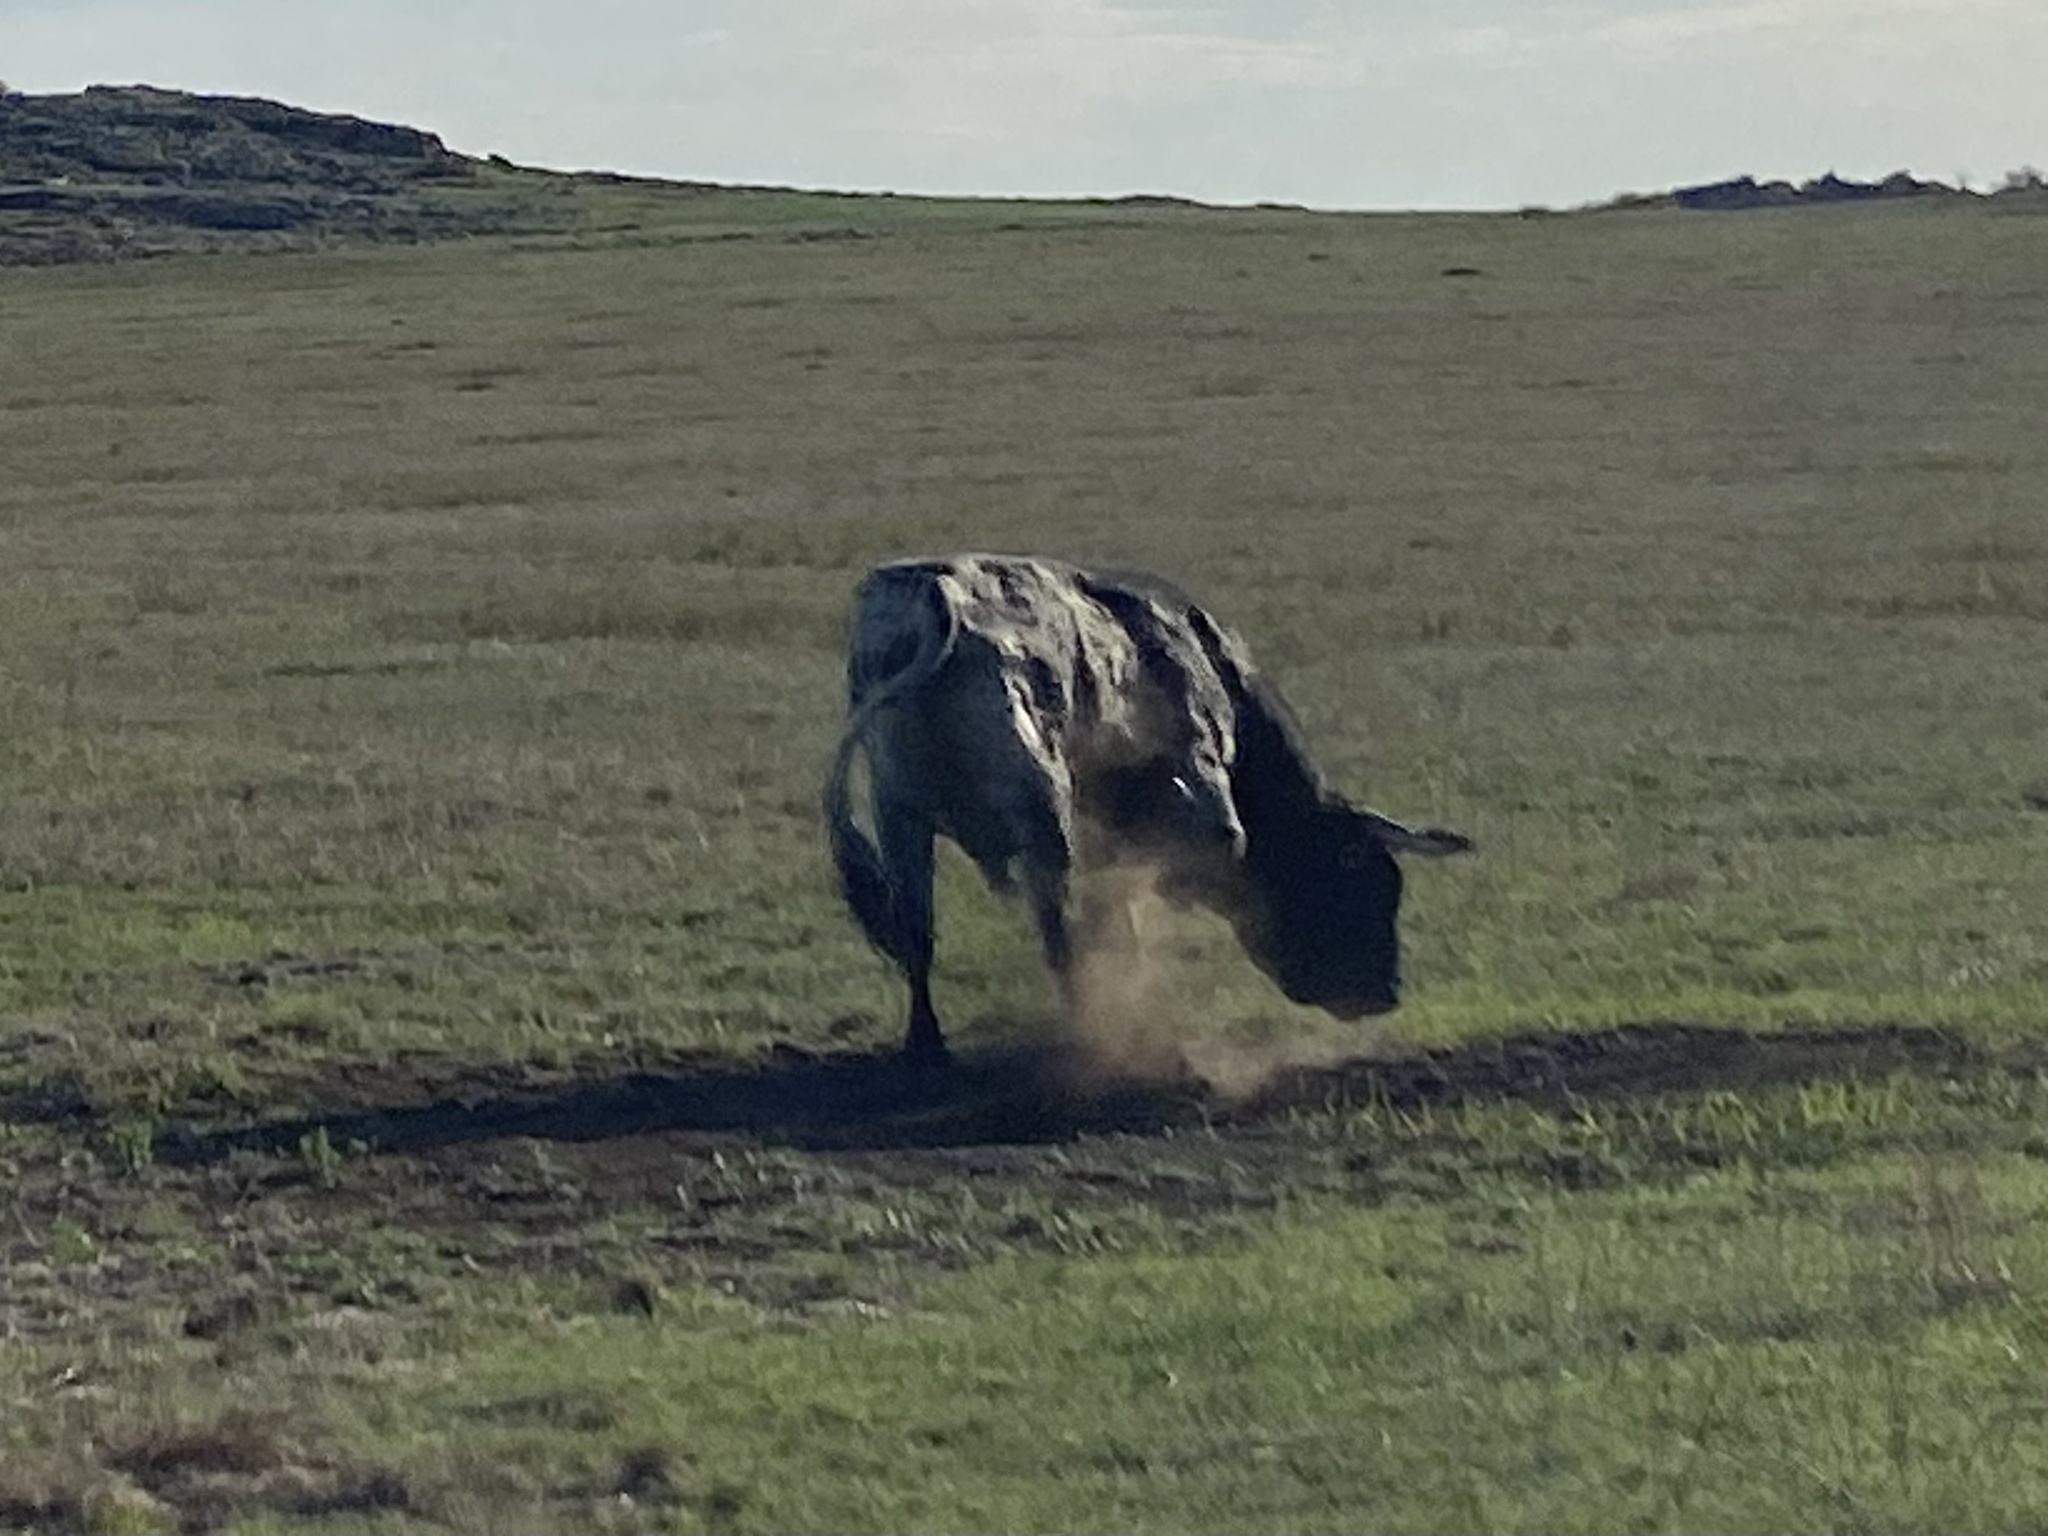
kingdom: Animalia
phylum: Chordata
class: Mammalia
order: Artiodactyla
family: Bovidae
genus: Bos
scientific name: Bos taurus
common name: Domesticated cattle
